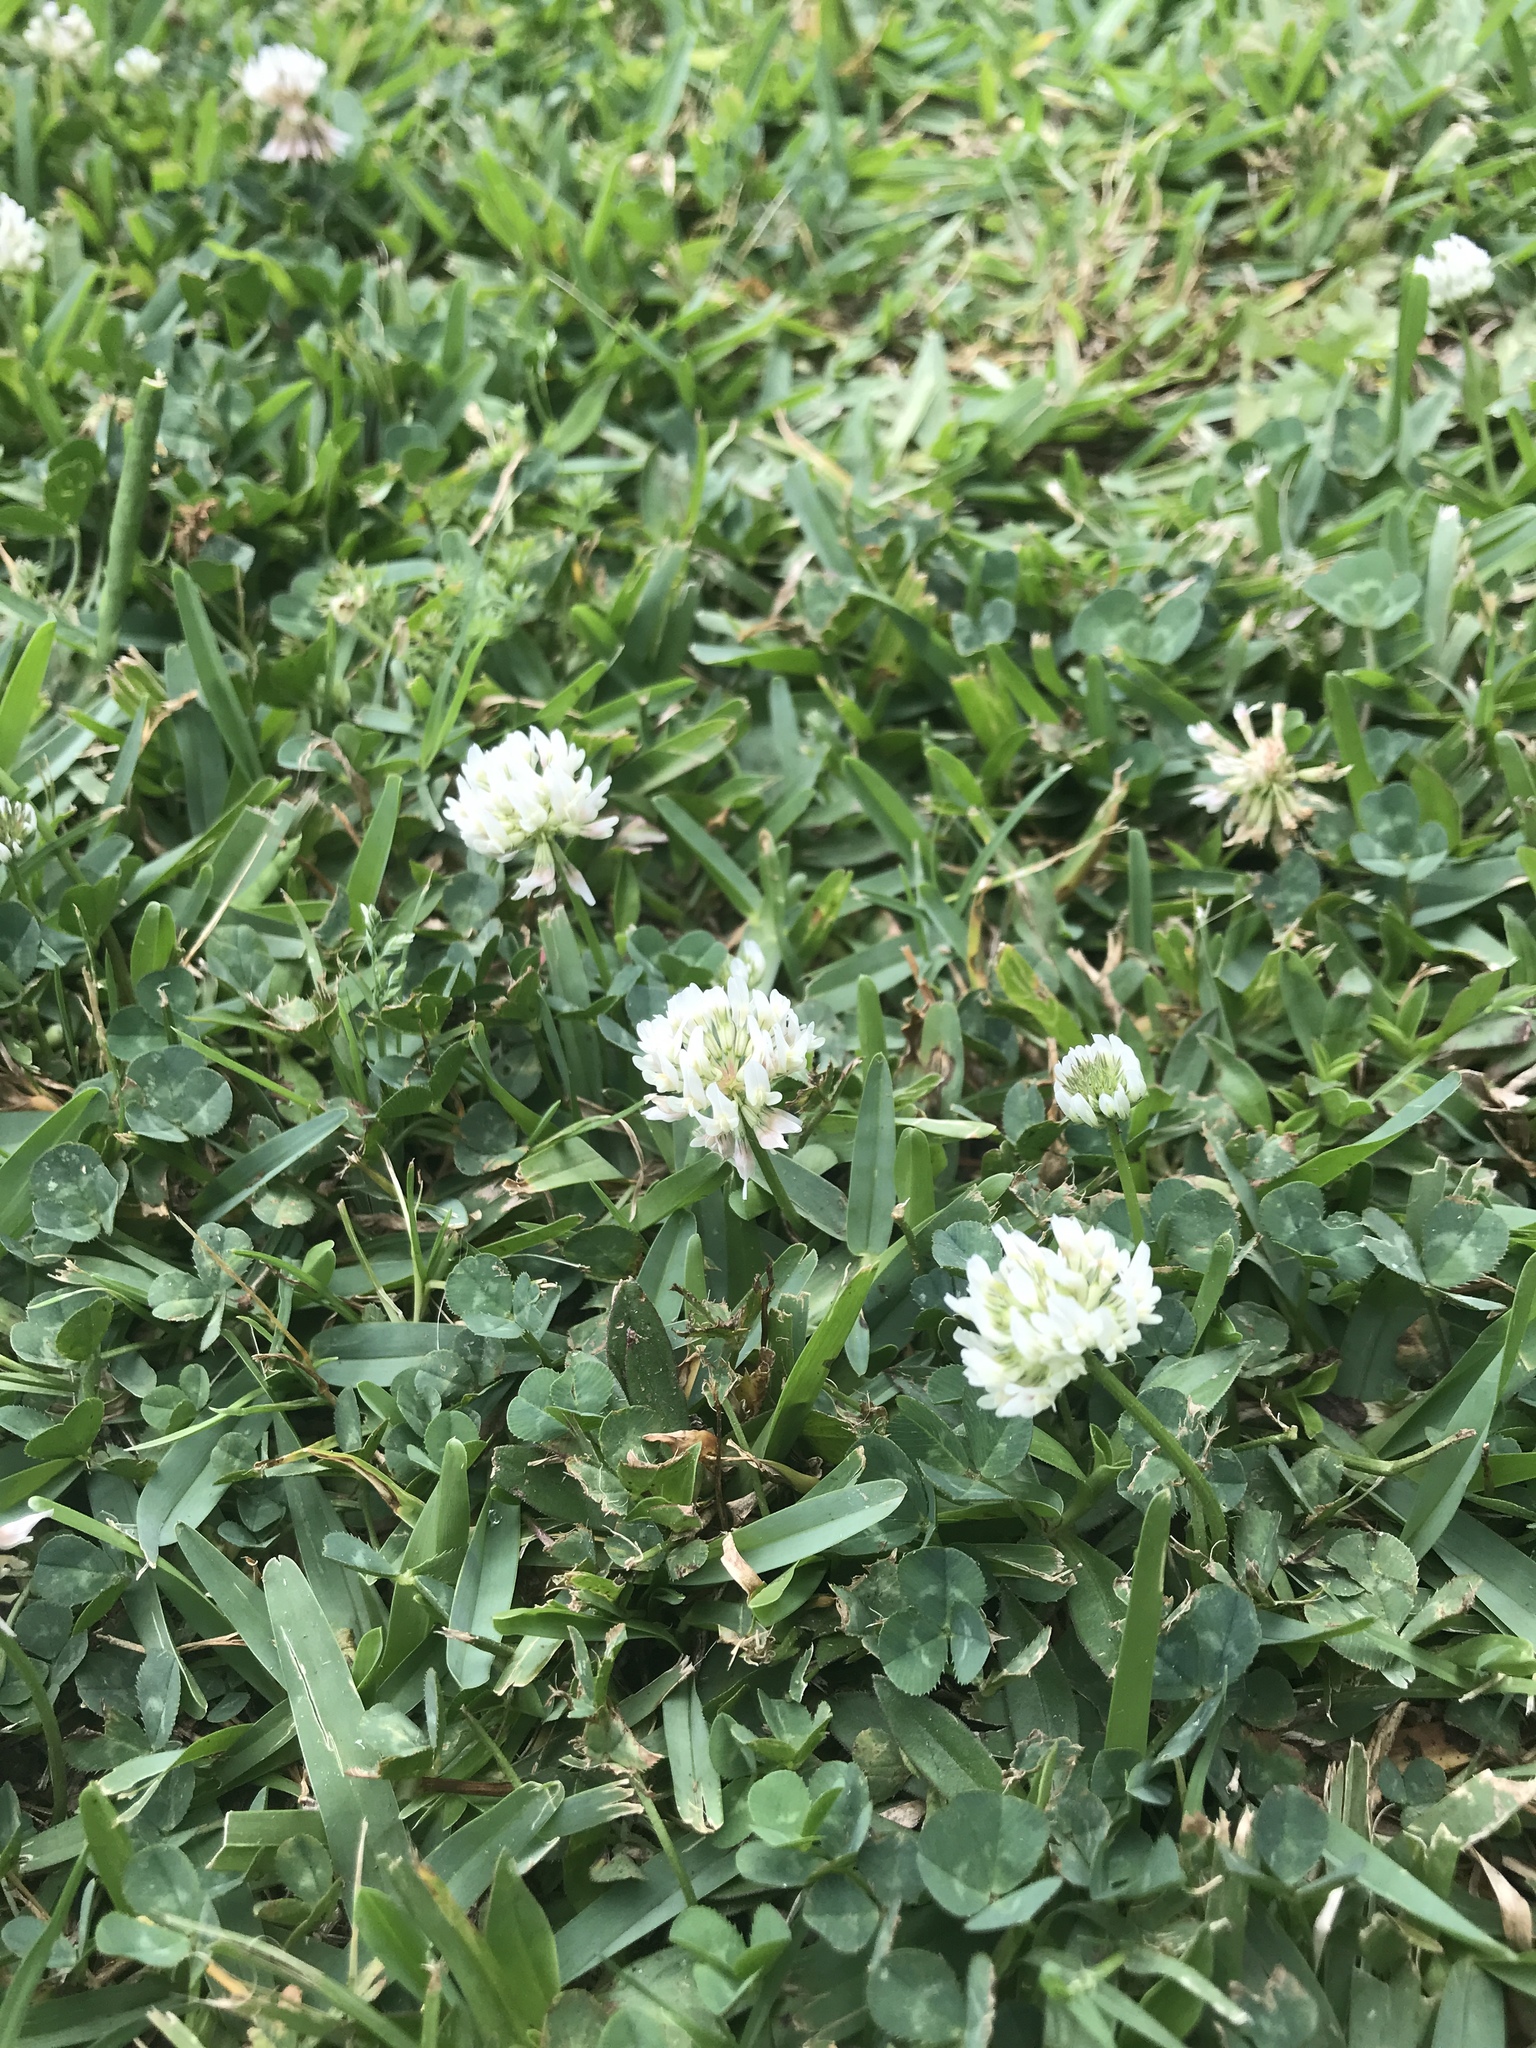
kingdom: Plantae
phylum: Tracheophyta
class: Magnoliopsida
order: Fabales
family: Fabaceae
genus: Trifolium
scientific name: Trifolium repens
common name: White clover
